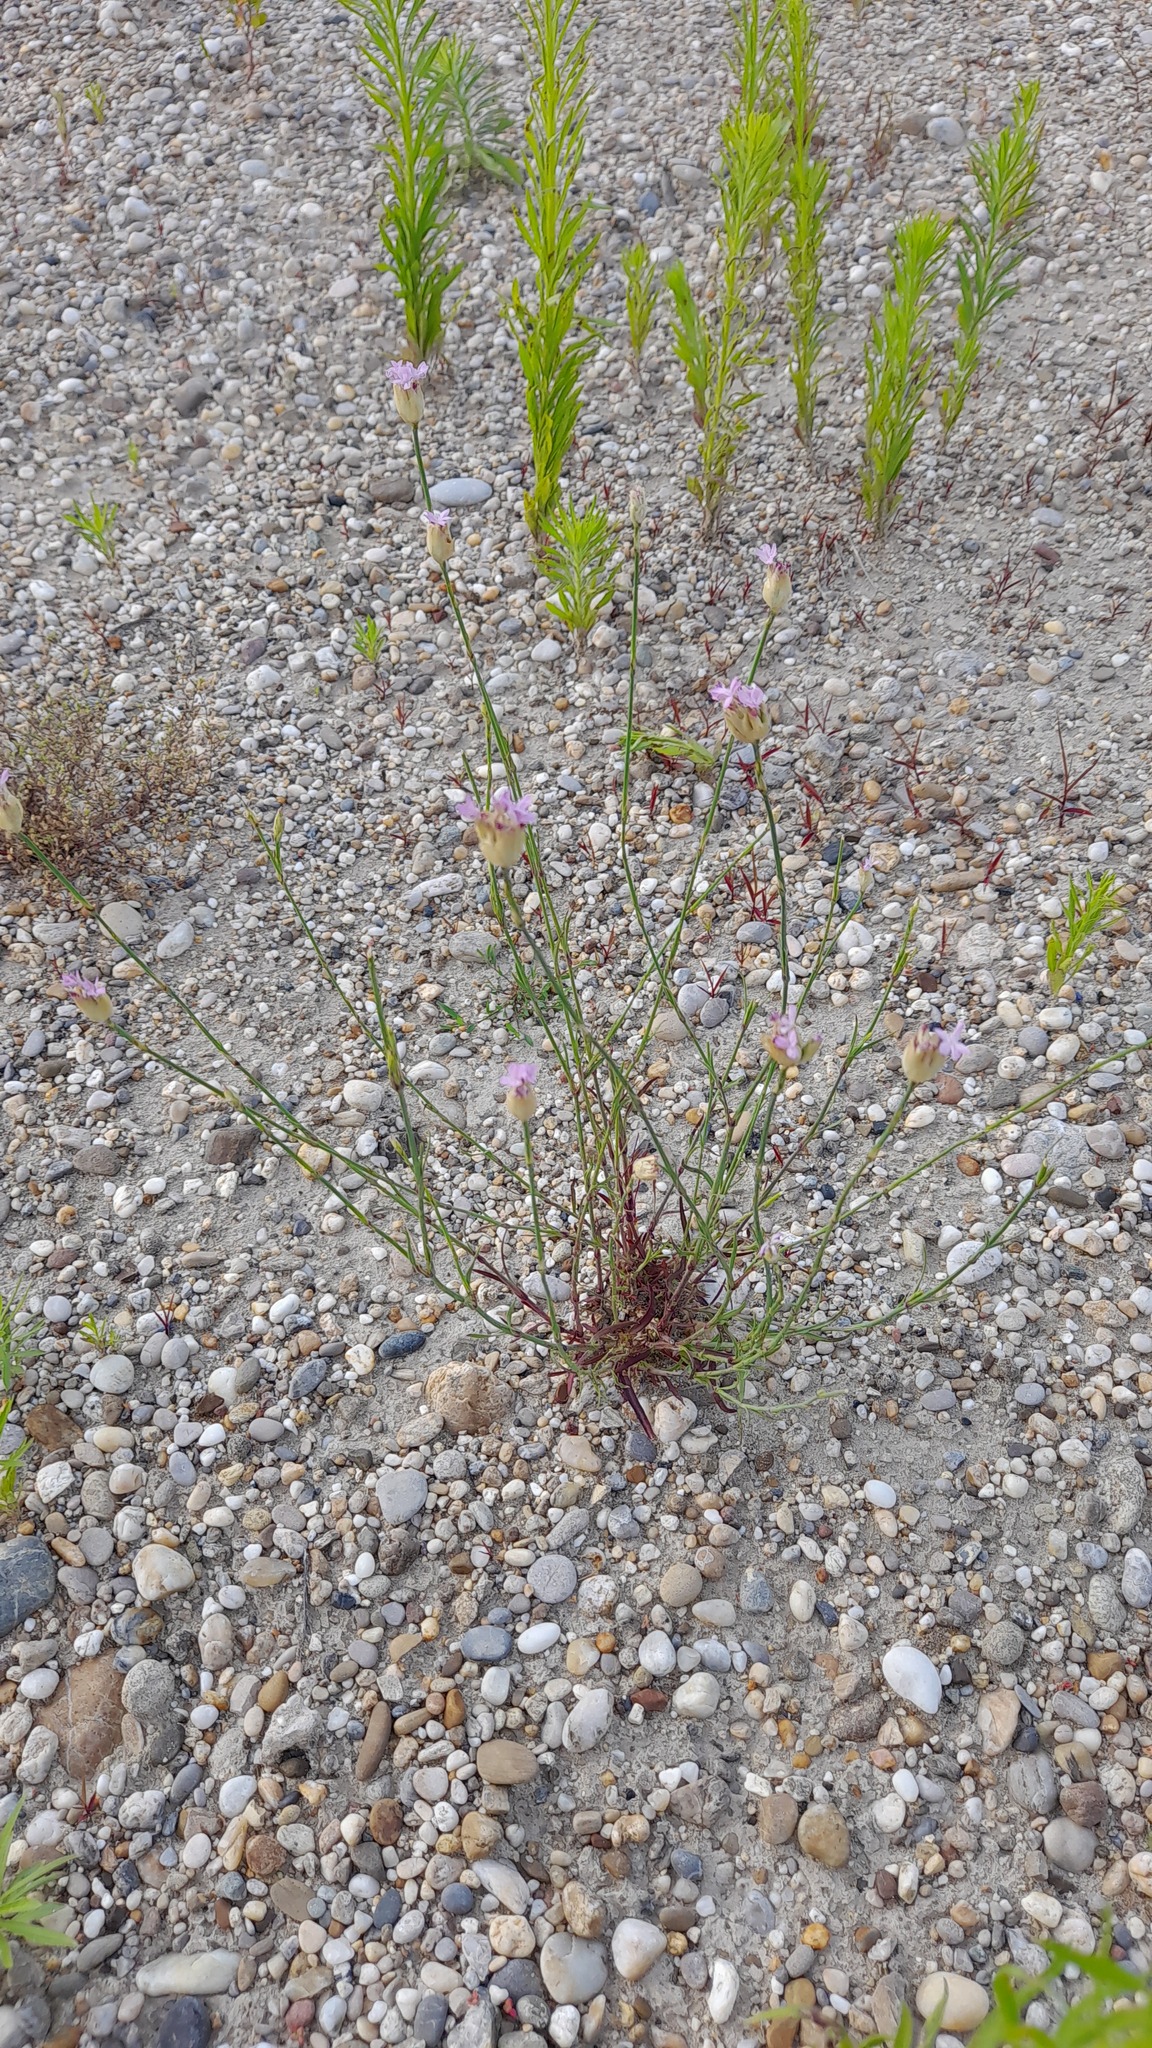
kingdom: Plantae
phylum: Tracheophyta
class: Magnoliopsida
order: Caryophyllales
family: Caryophyllaceae
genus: Petrorhagia
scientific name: Petrorhagia prolifera
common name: Proliferous pink
